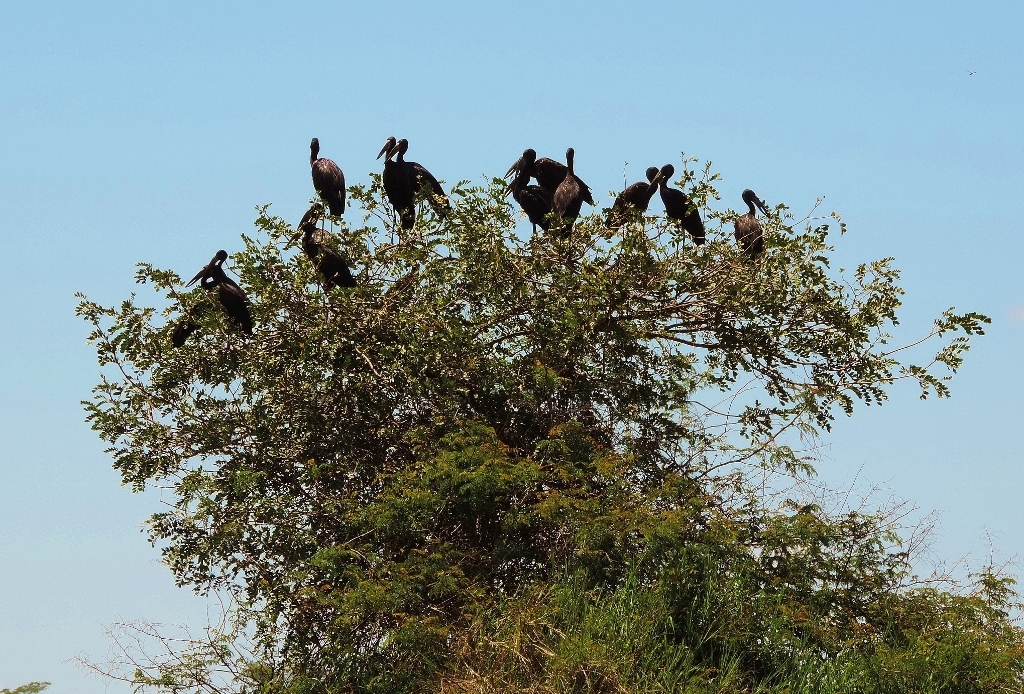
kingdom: Animalia
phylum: Chordata
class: Aves
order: Ciconiiformes
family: Ciconiidae
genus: Anastomus
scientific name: Anastomus lamelligerus
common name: African openbill
